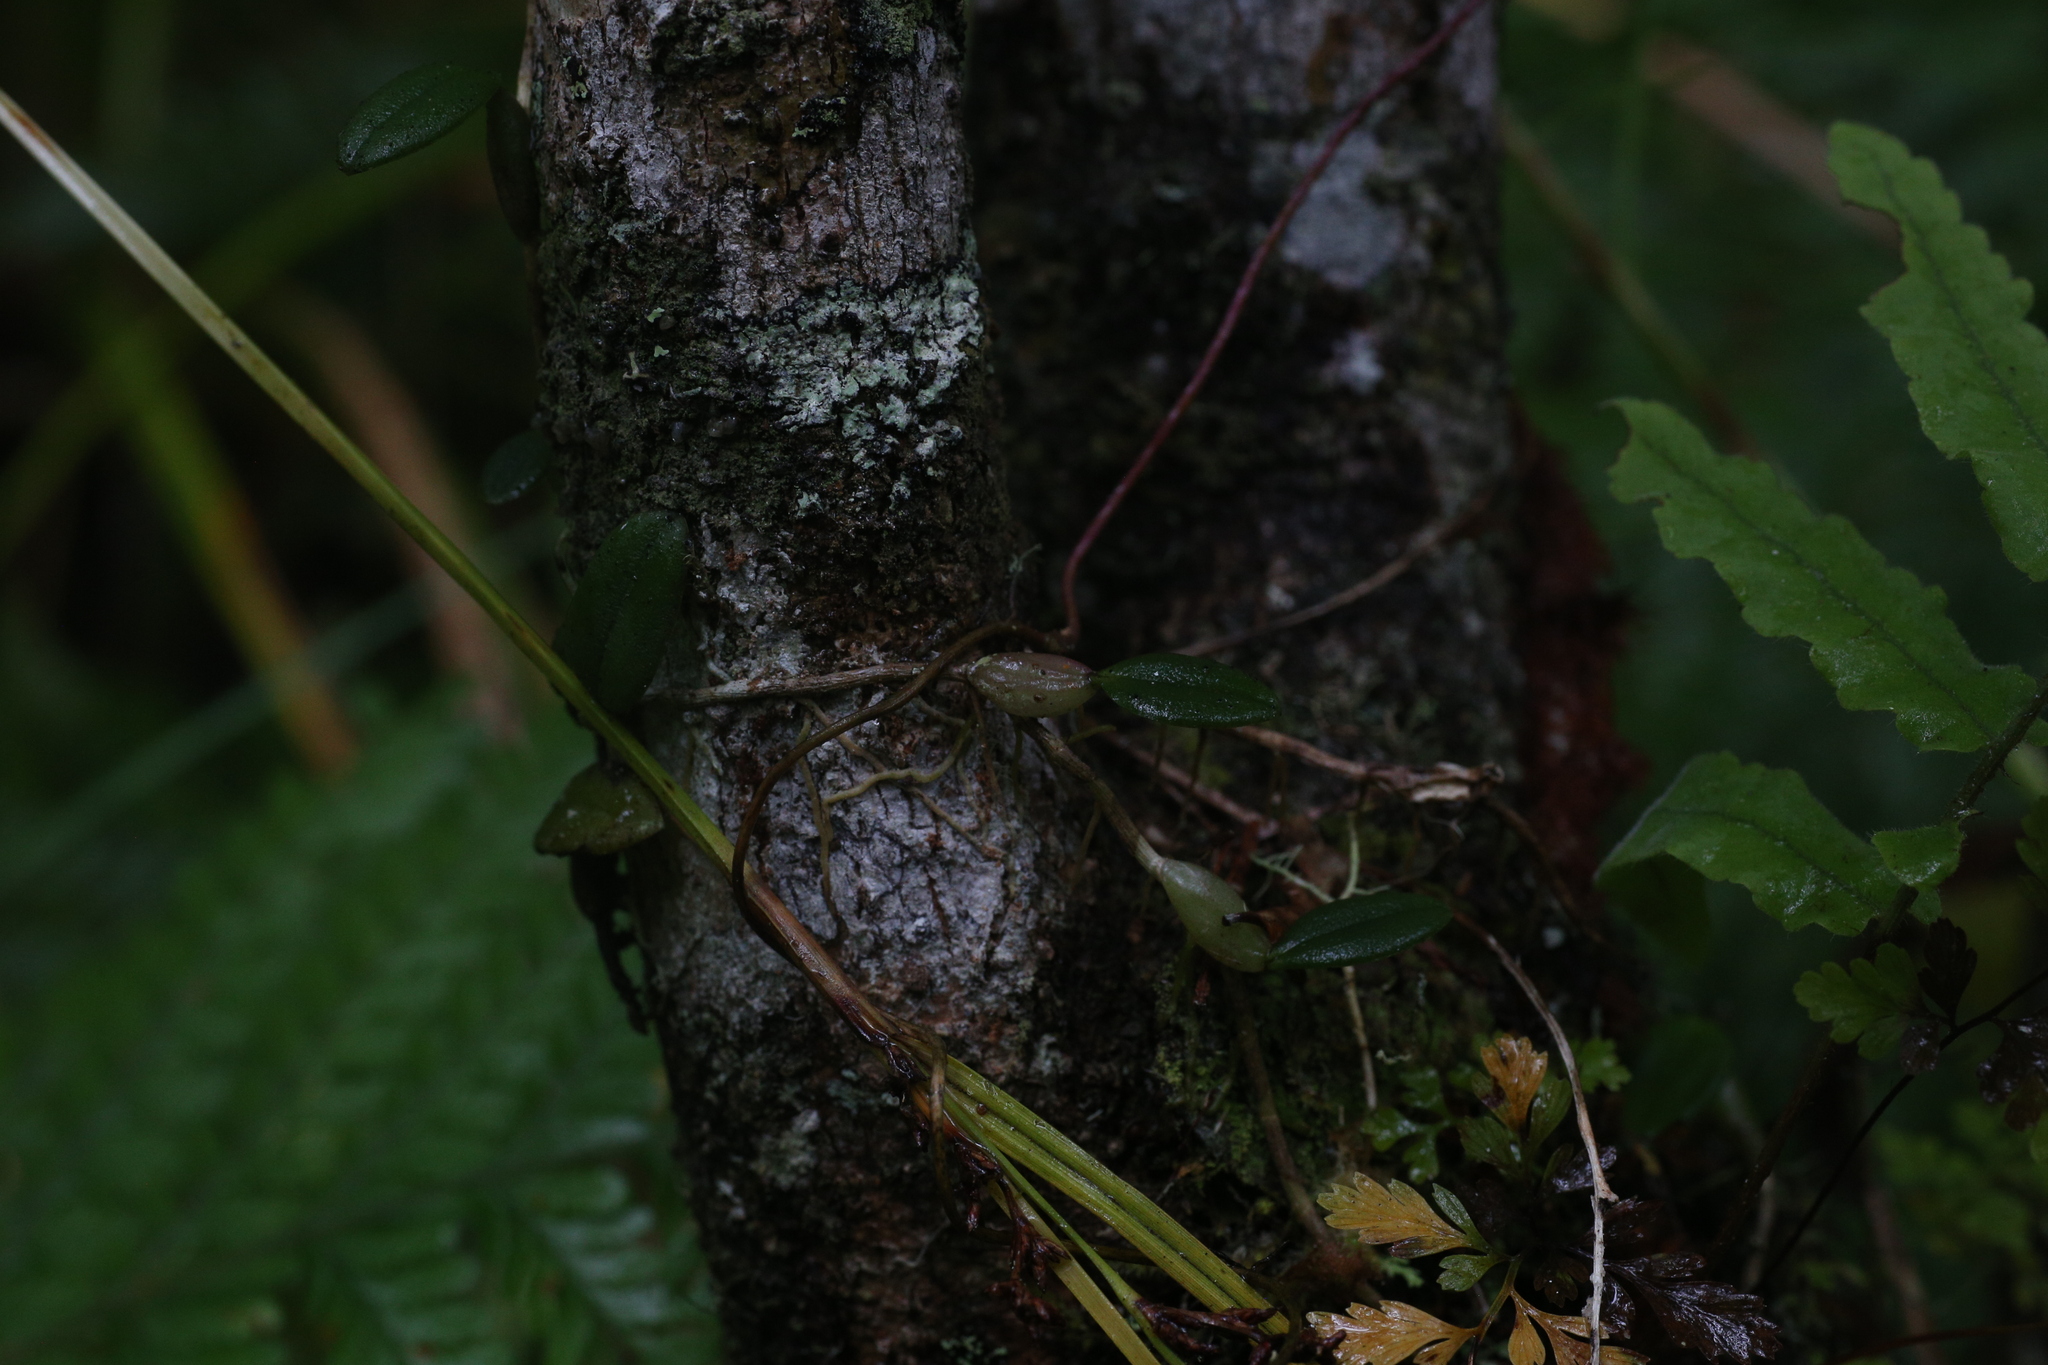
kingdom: Plantae
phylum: Tracheophyta
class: Liliopsida
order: Asparagales
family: Orchidaceae
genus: Bulbophyllum
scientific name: Bulbophyllum bowkettiae
